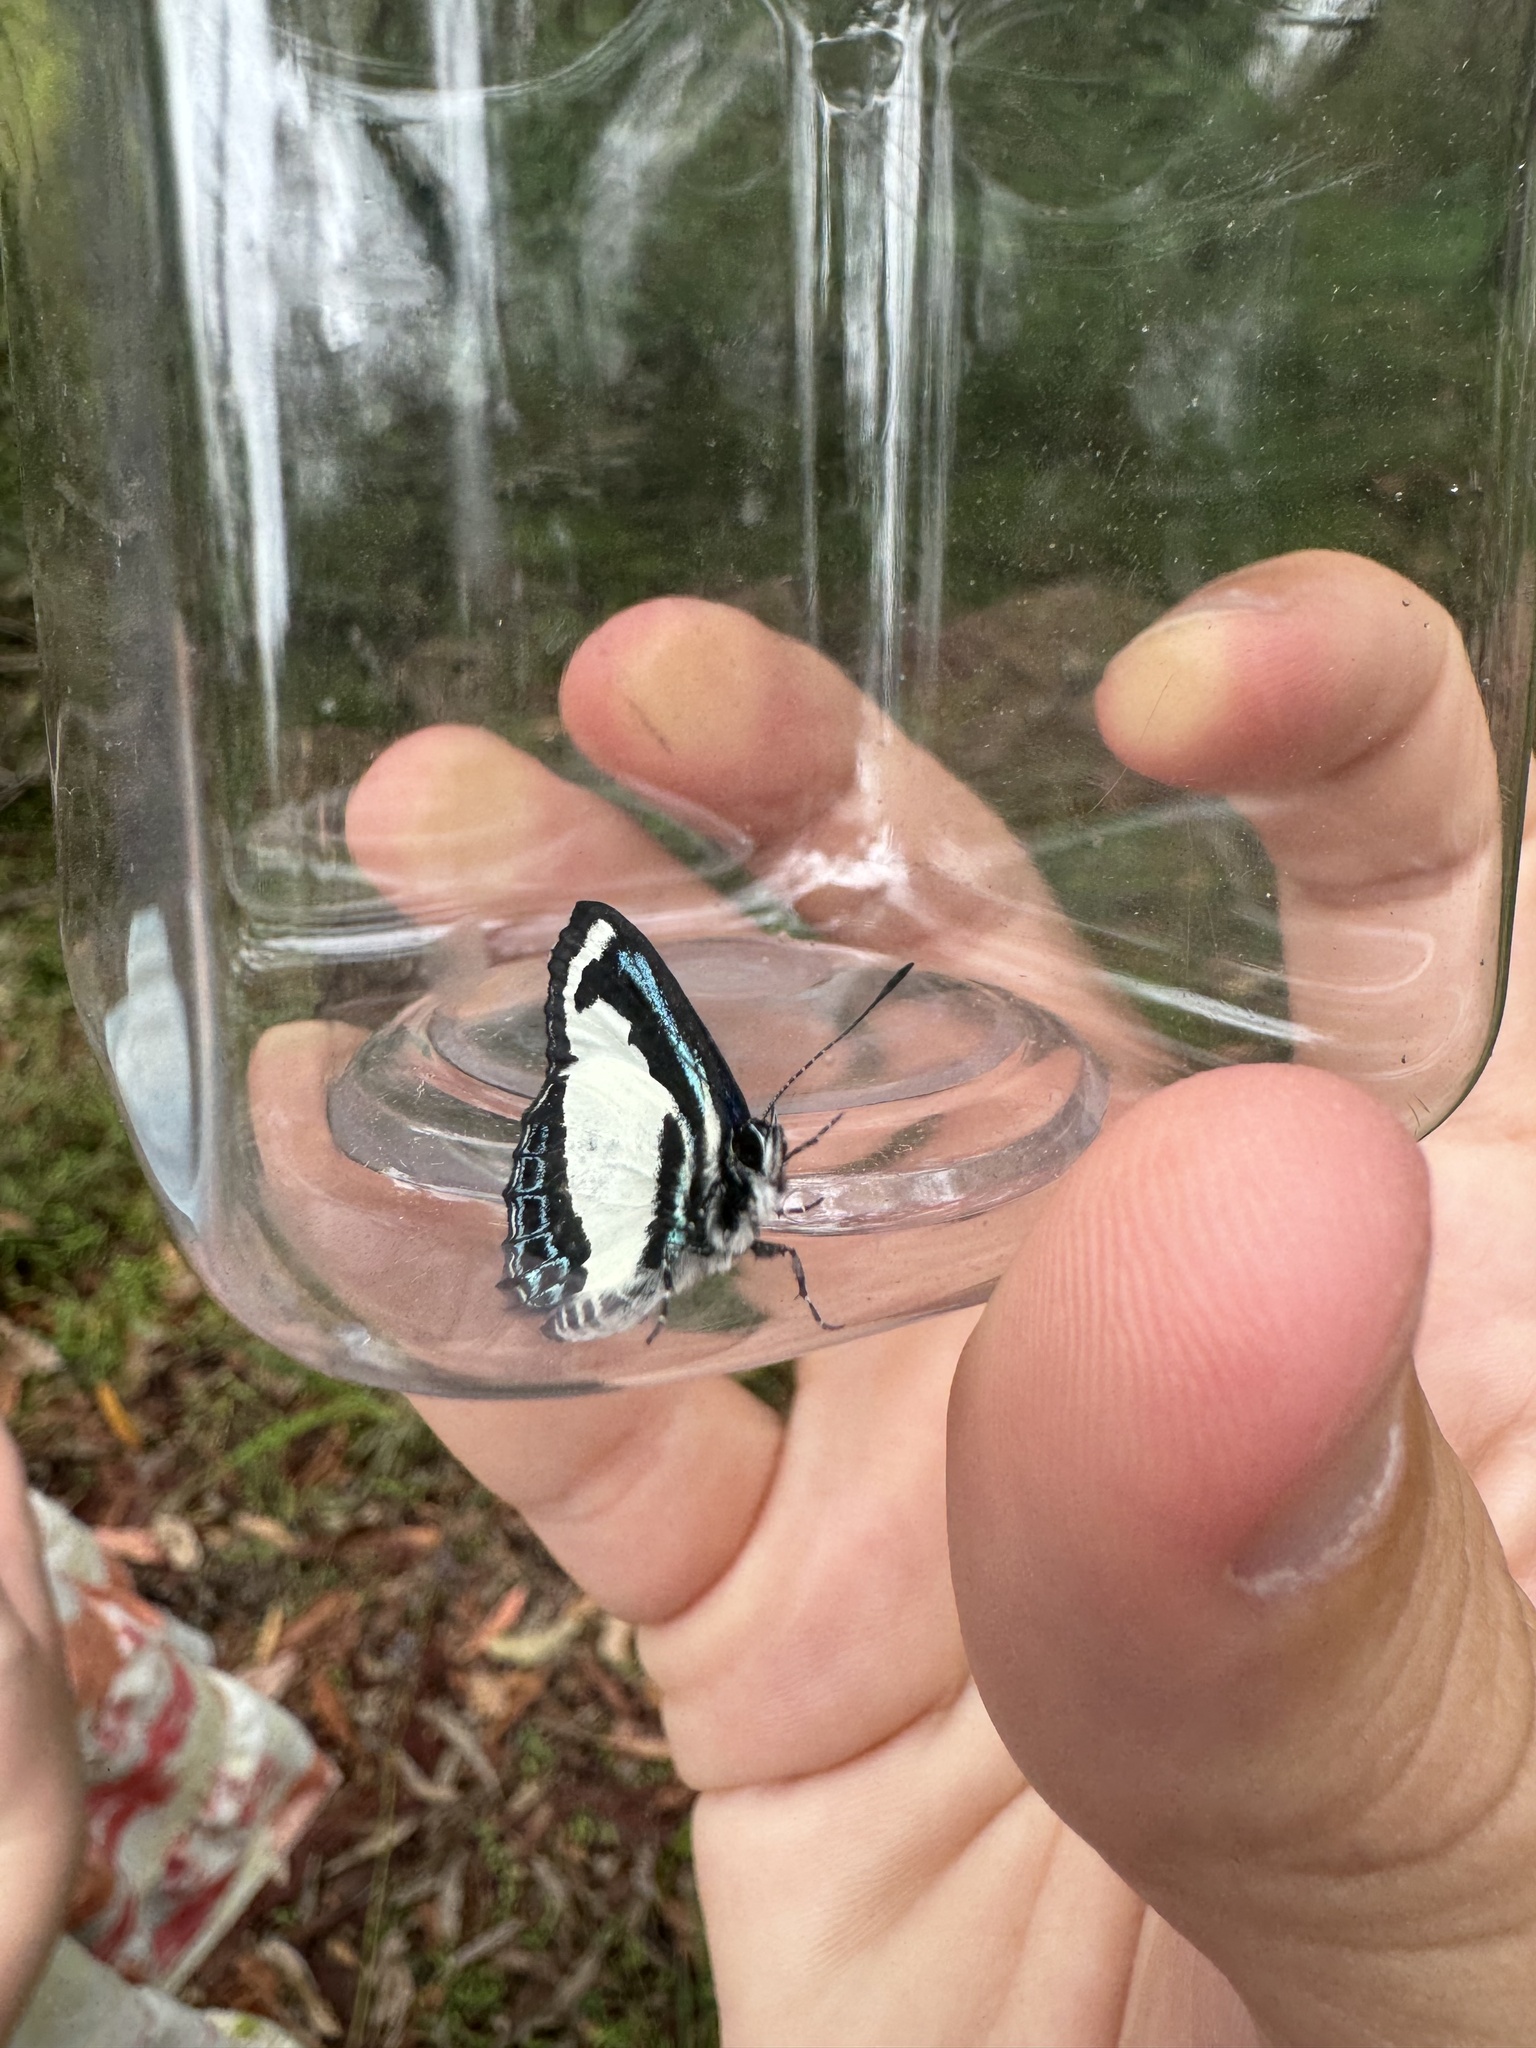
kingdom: Animalia
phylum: Arthropoda
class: Insecta
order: Lepidoptera
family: Lycaenidae
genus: Psychonotis
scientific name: Psychonotis caelius
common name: Small green banded blue
